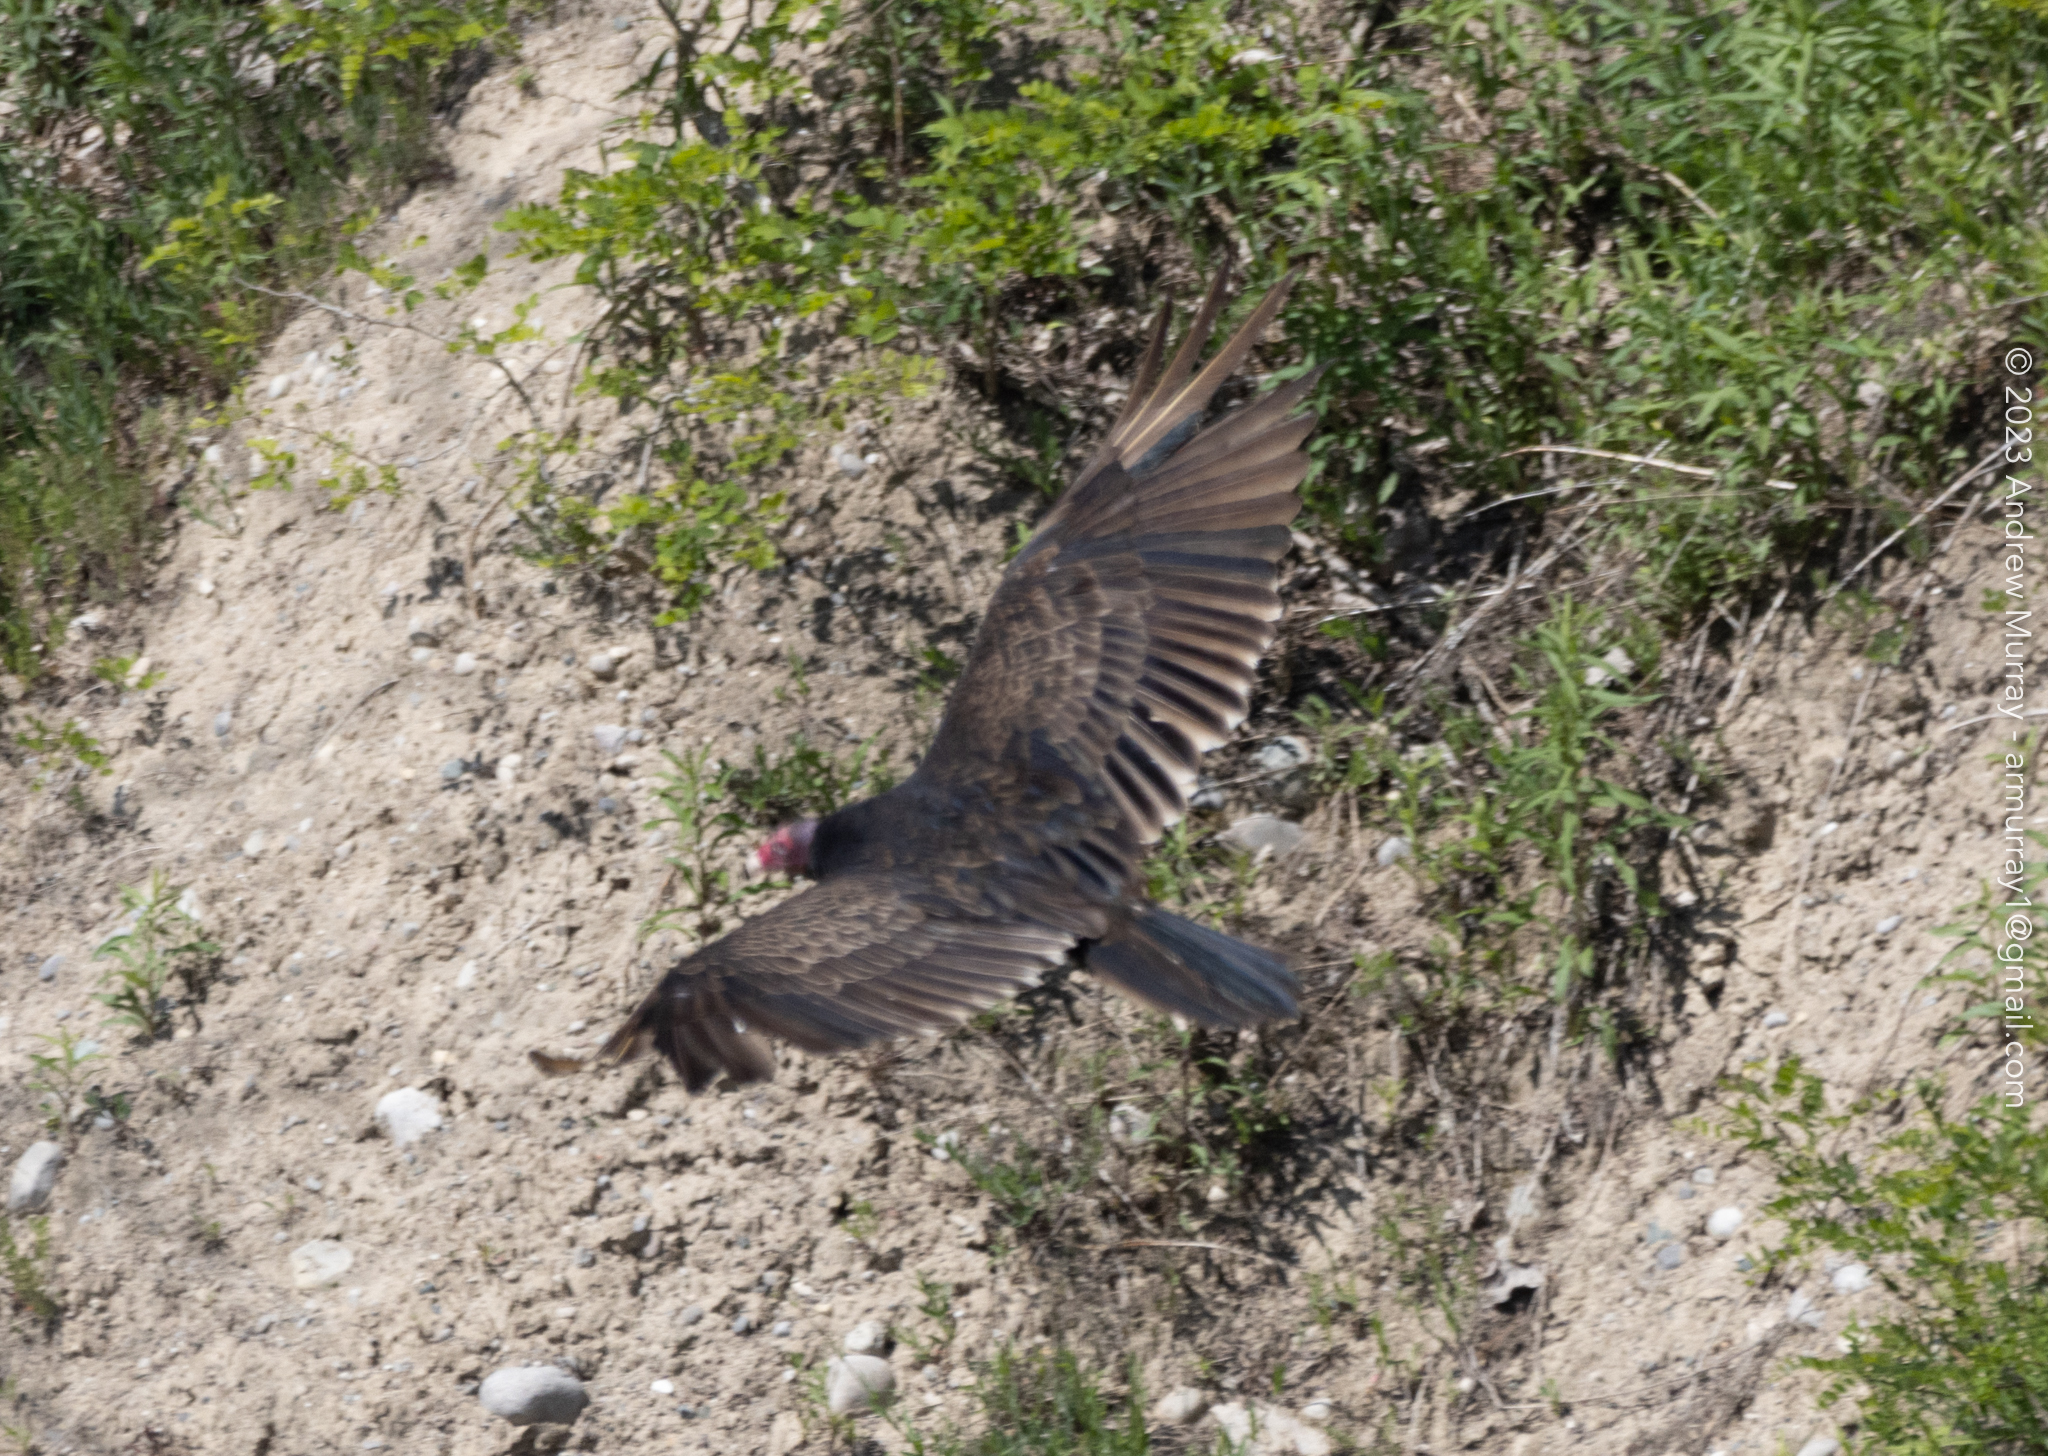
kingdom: Animalia
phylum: Chordata
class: Aves
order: Accipitriformes
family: Cathartidae
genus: Cathartes
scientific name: Cathartes aura
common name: Turkey vulture
